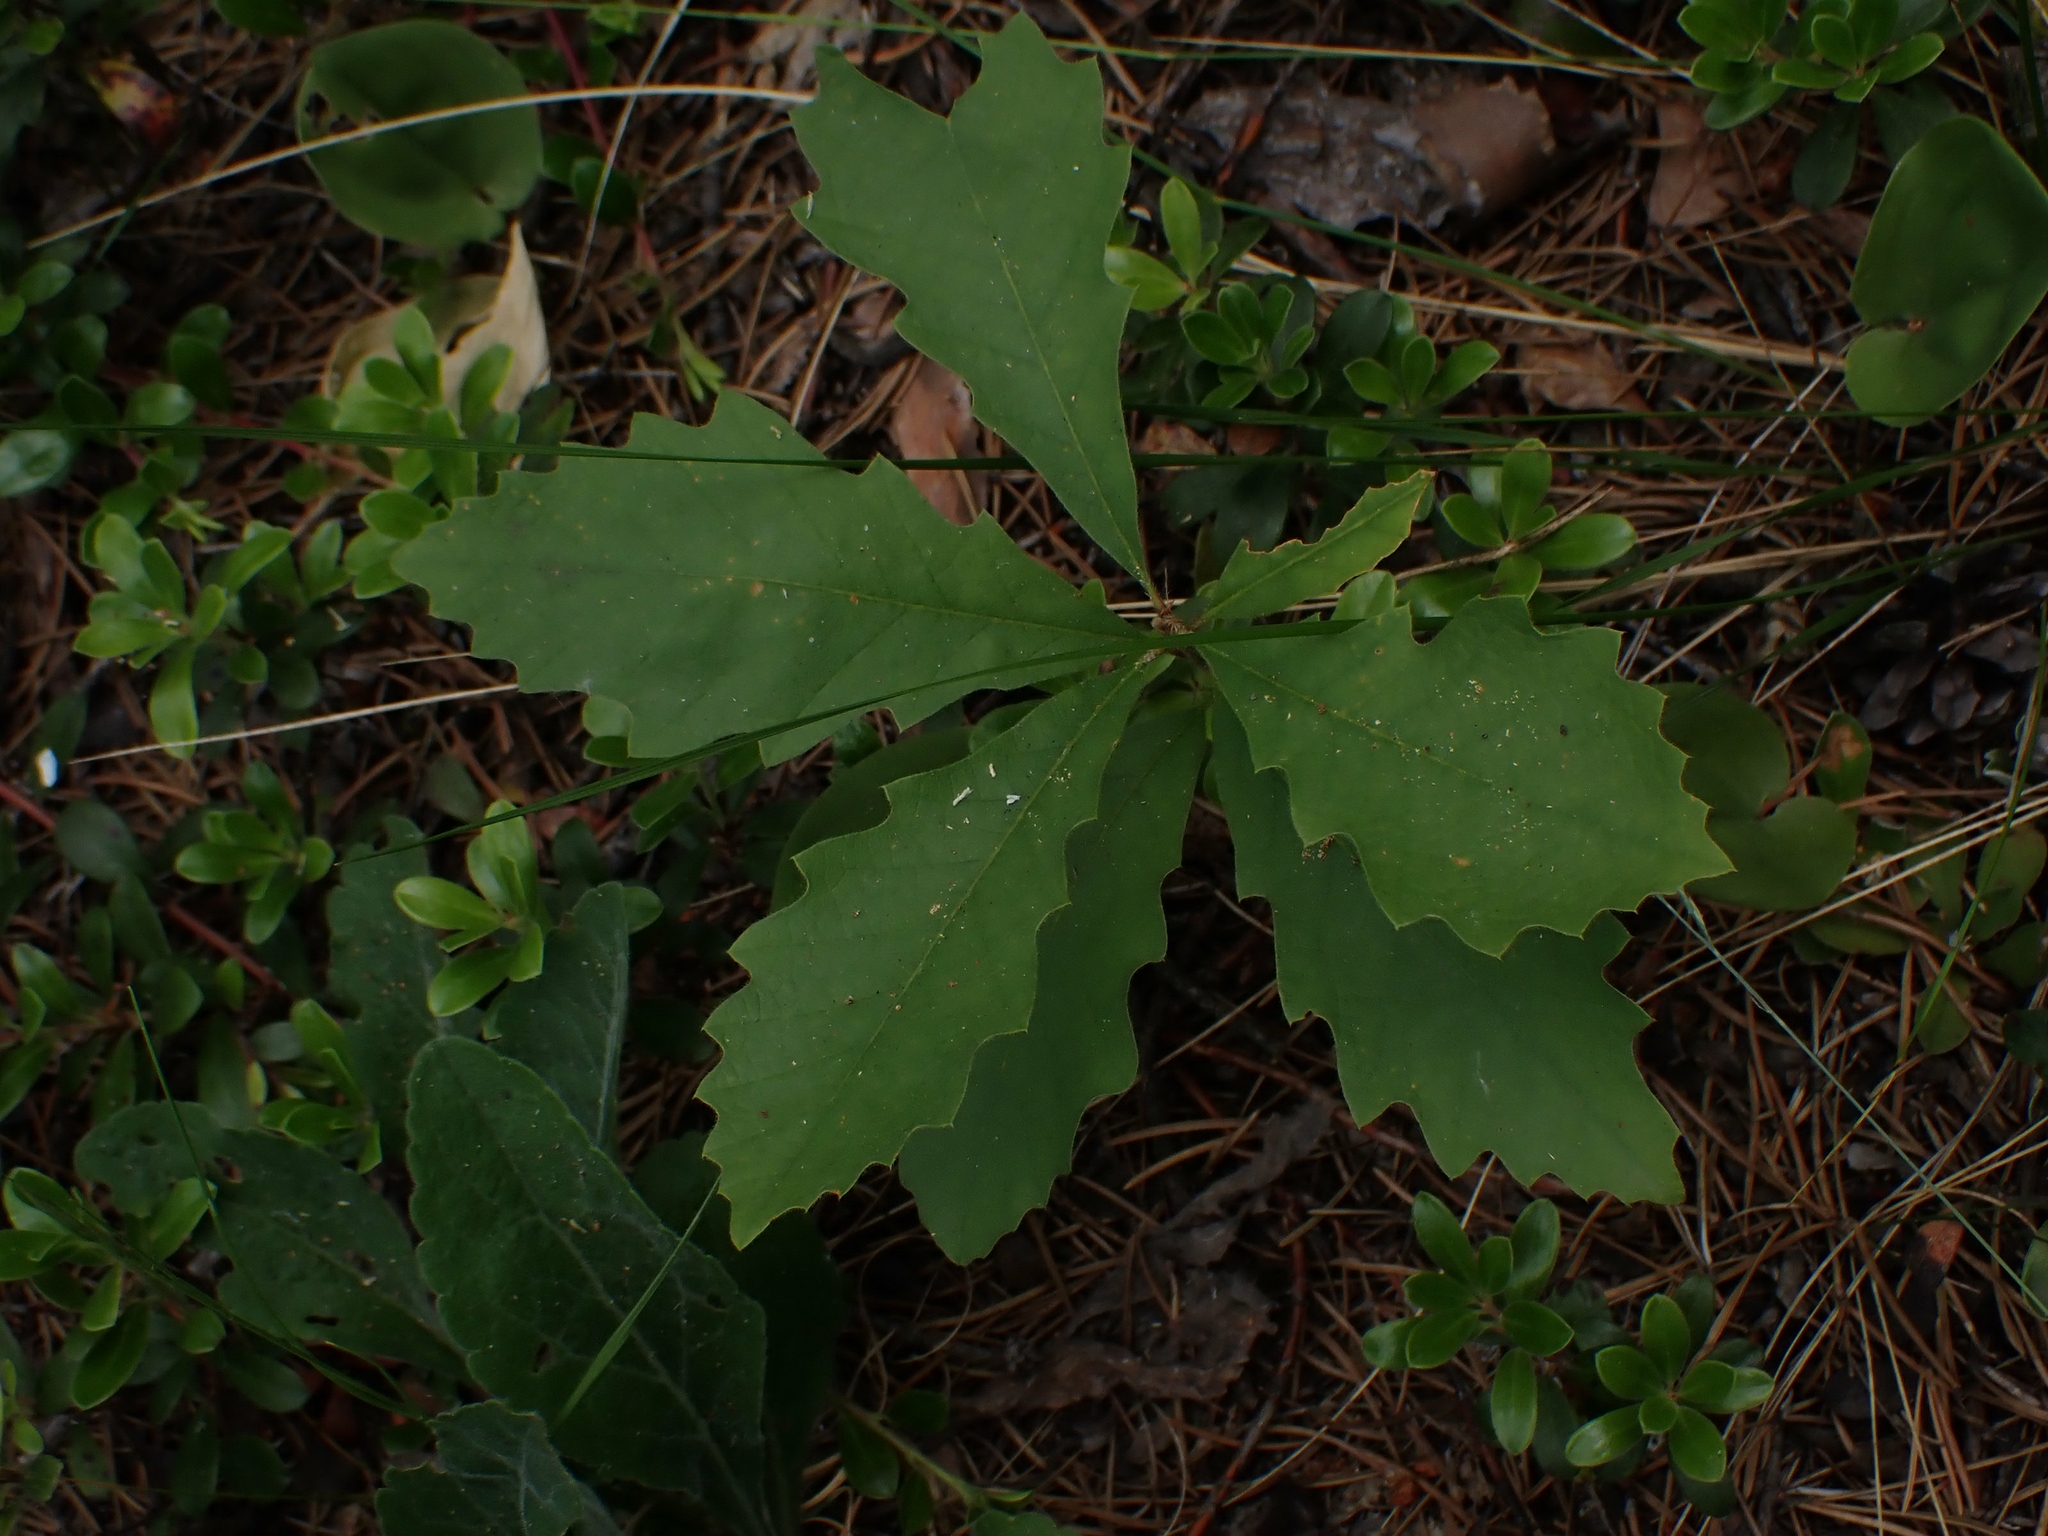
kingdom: Plantae
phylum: Tracheophyta
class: Magnoliopsida
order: Fagales
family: Fagaceae
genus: Quercus
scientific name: Quercus macrocarpa
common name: Bur oak
